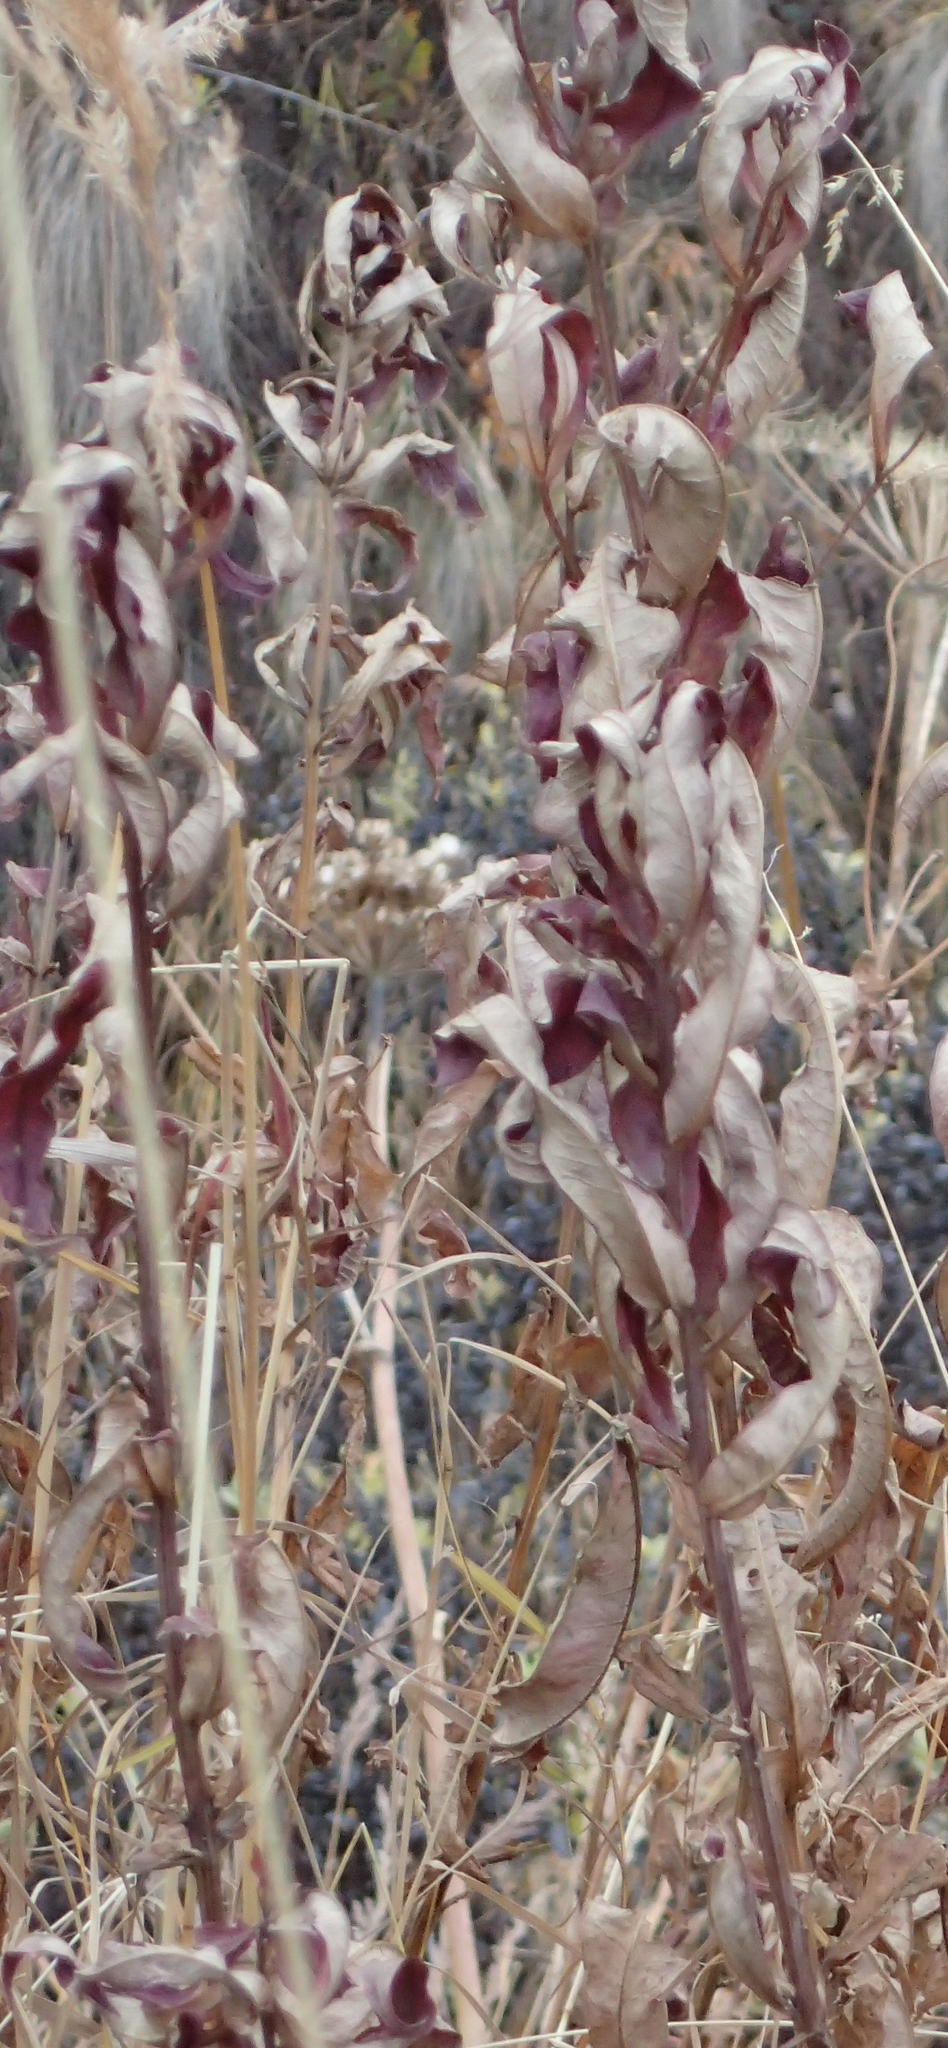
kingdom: Plantae
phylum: Tracheophyta
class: Magnoliopsida
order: Myrtales
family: Onagraceae
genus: Chamaenerion
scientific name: Chamaenerion angustifolium
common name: Fireweed
